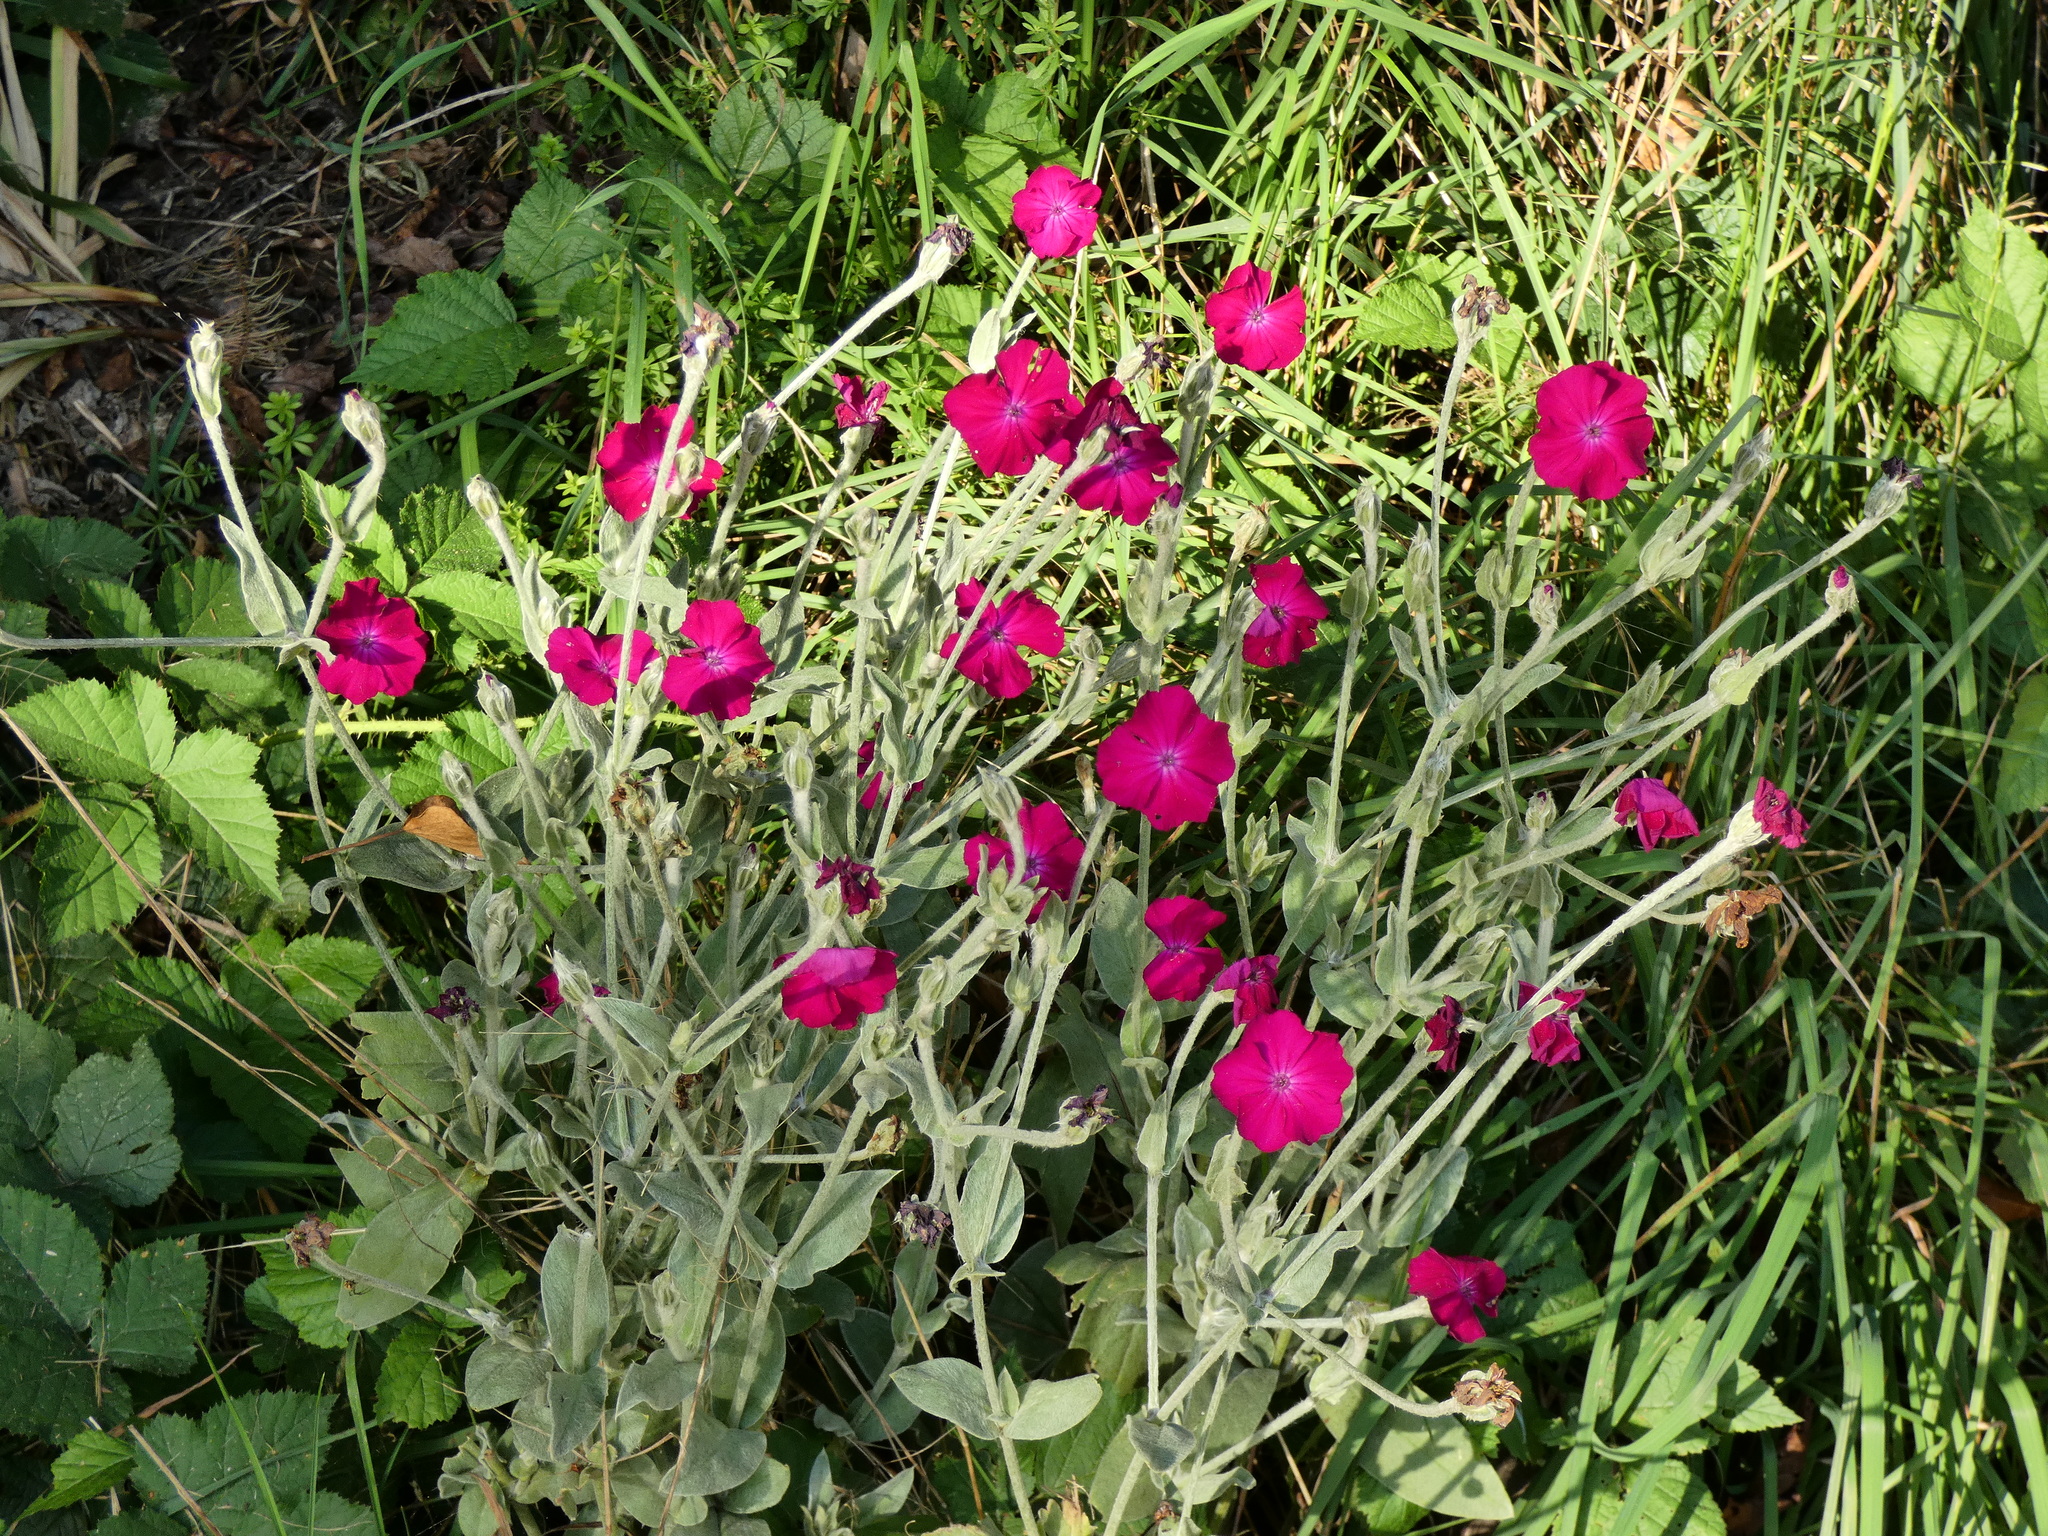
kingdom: Plantae
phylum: Tracheophyta
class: Magnoliopsida
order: Caryophyllales
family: Caryophyllaceae
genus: Silene
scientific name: Silene coronaria
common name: Rose campion
